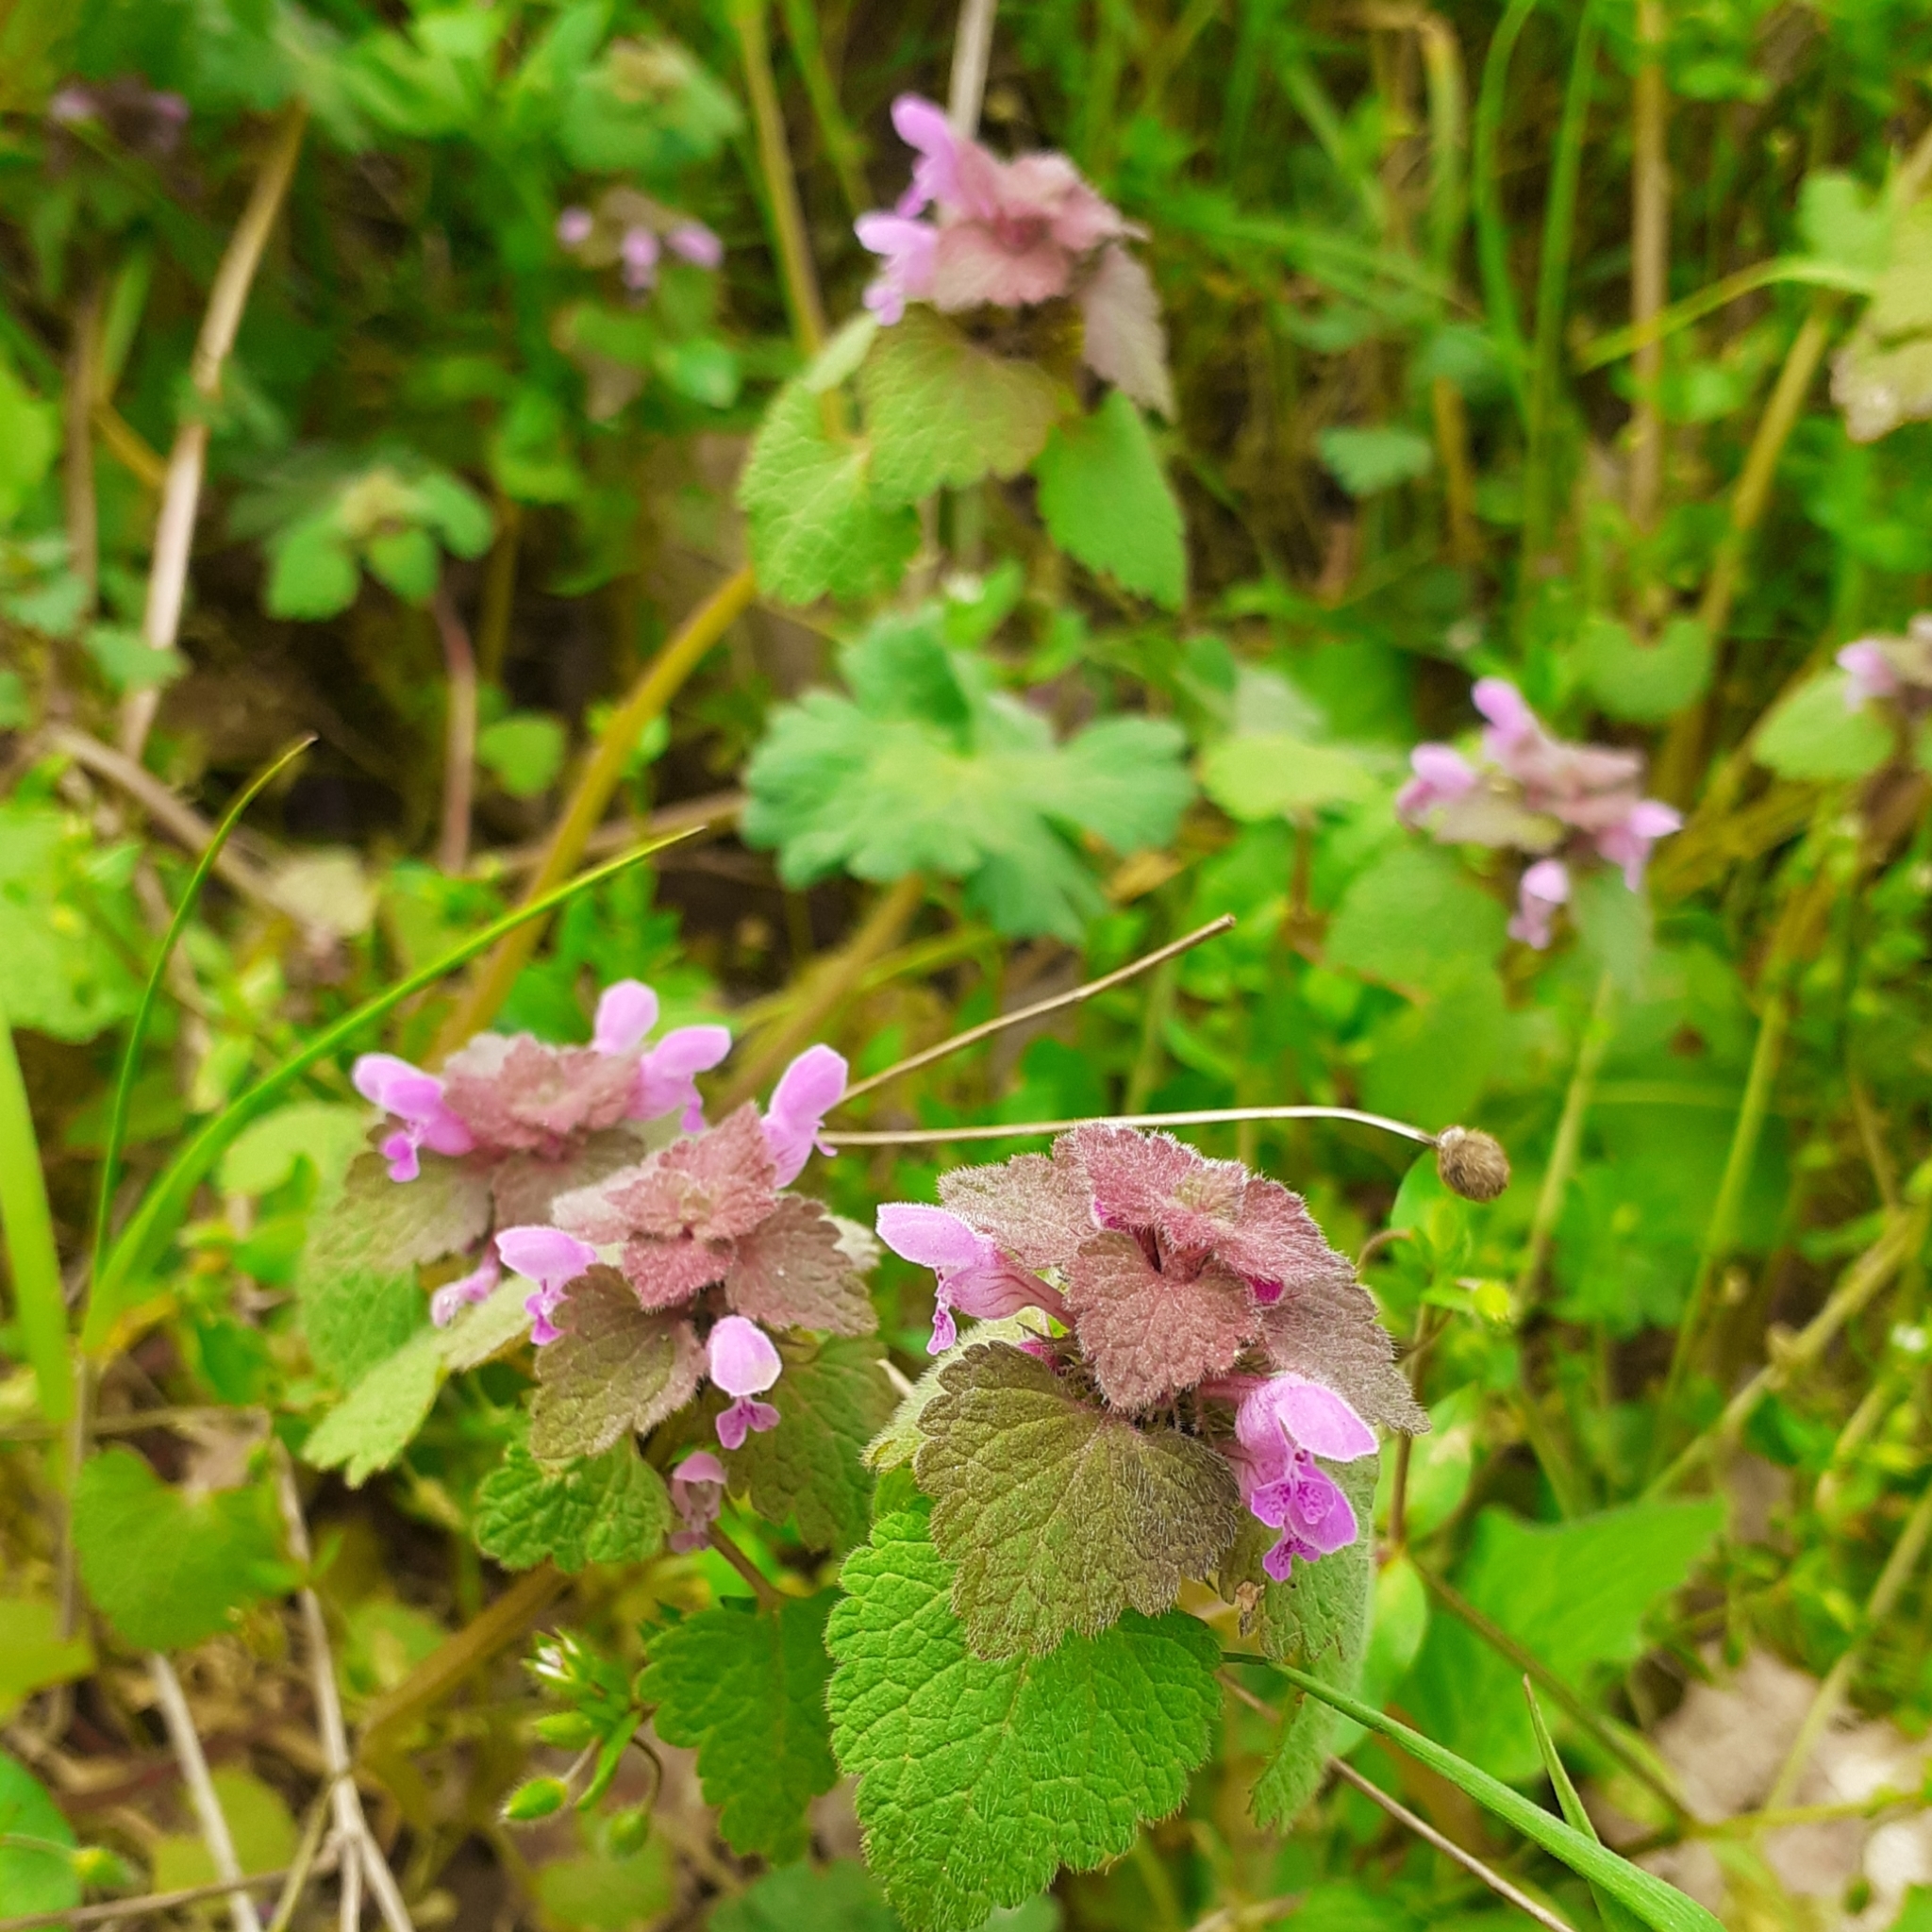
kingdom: Plantae
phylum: Tracheophyta
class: Magnoliopsida
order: Lamiales
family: Lamiaceae
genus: Lamium
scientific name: Lamium purpureum
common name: Red dead-nettle
